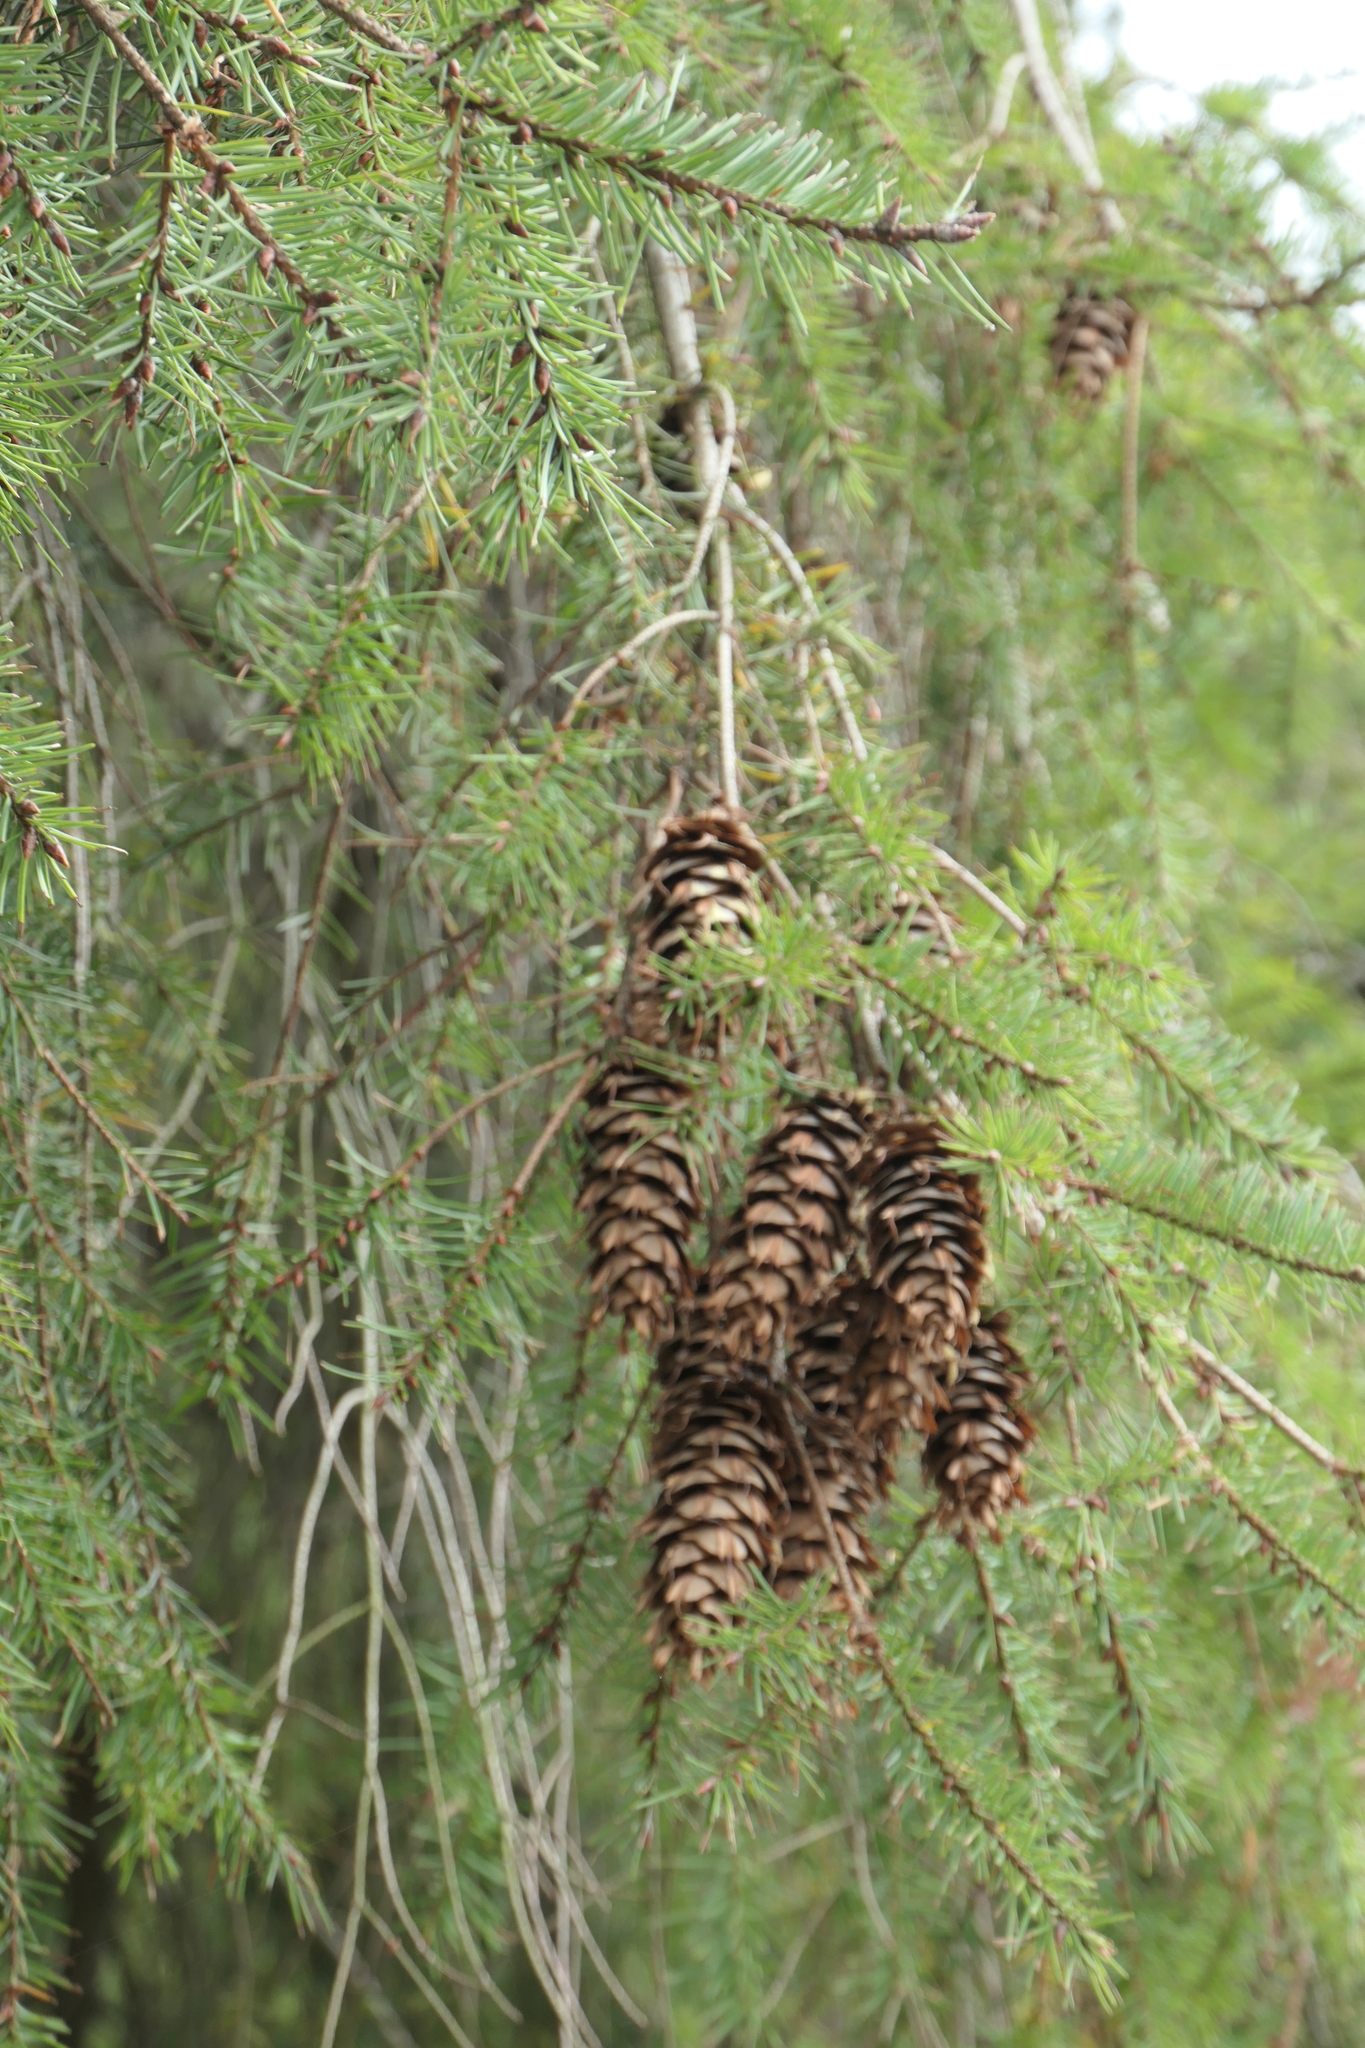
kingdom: Plantae
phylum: Tracheophyta
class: Pinopsida
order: Pinales
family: Pinaceae
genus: Pseudotsuga
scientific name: Pseudotsuga menziesii
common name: Douglas fir
